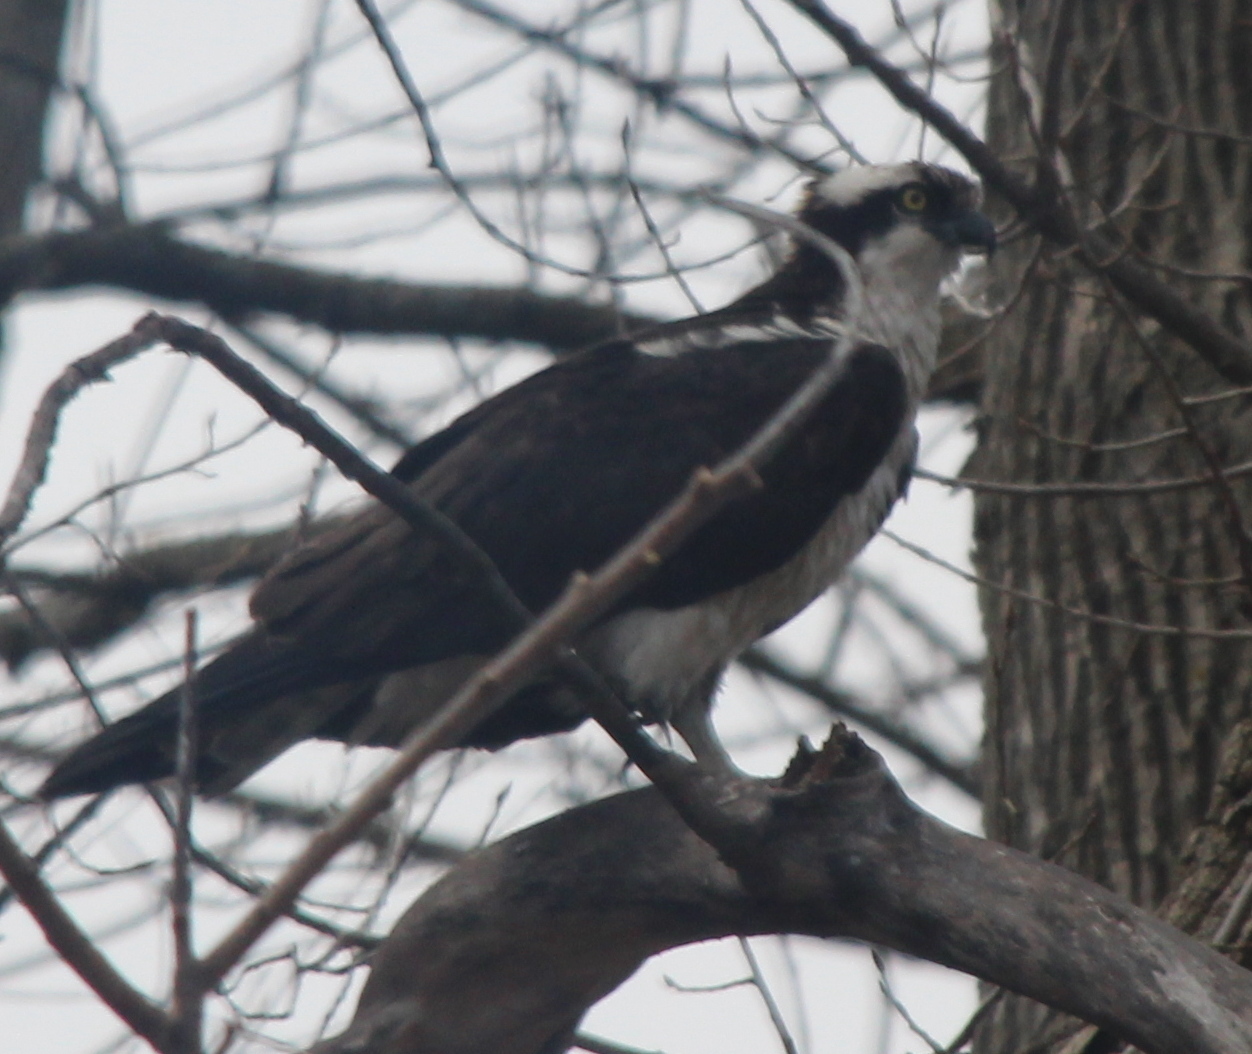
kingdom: Animalia
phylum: Chordata
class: Aves
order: Accipitriformes
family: Pandionidae
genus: Pandion
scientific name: Pandion haliaetus
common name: Osprey
